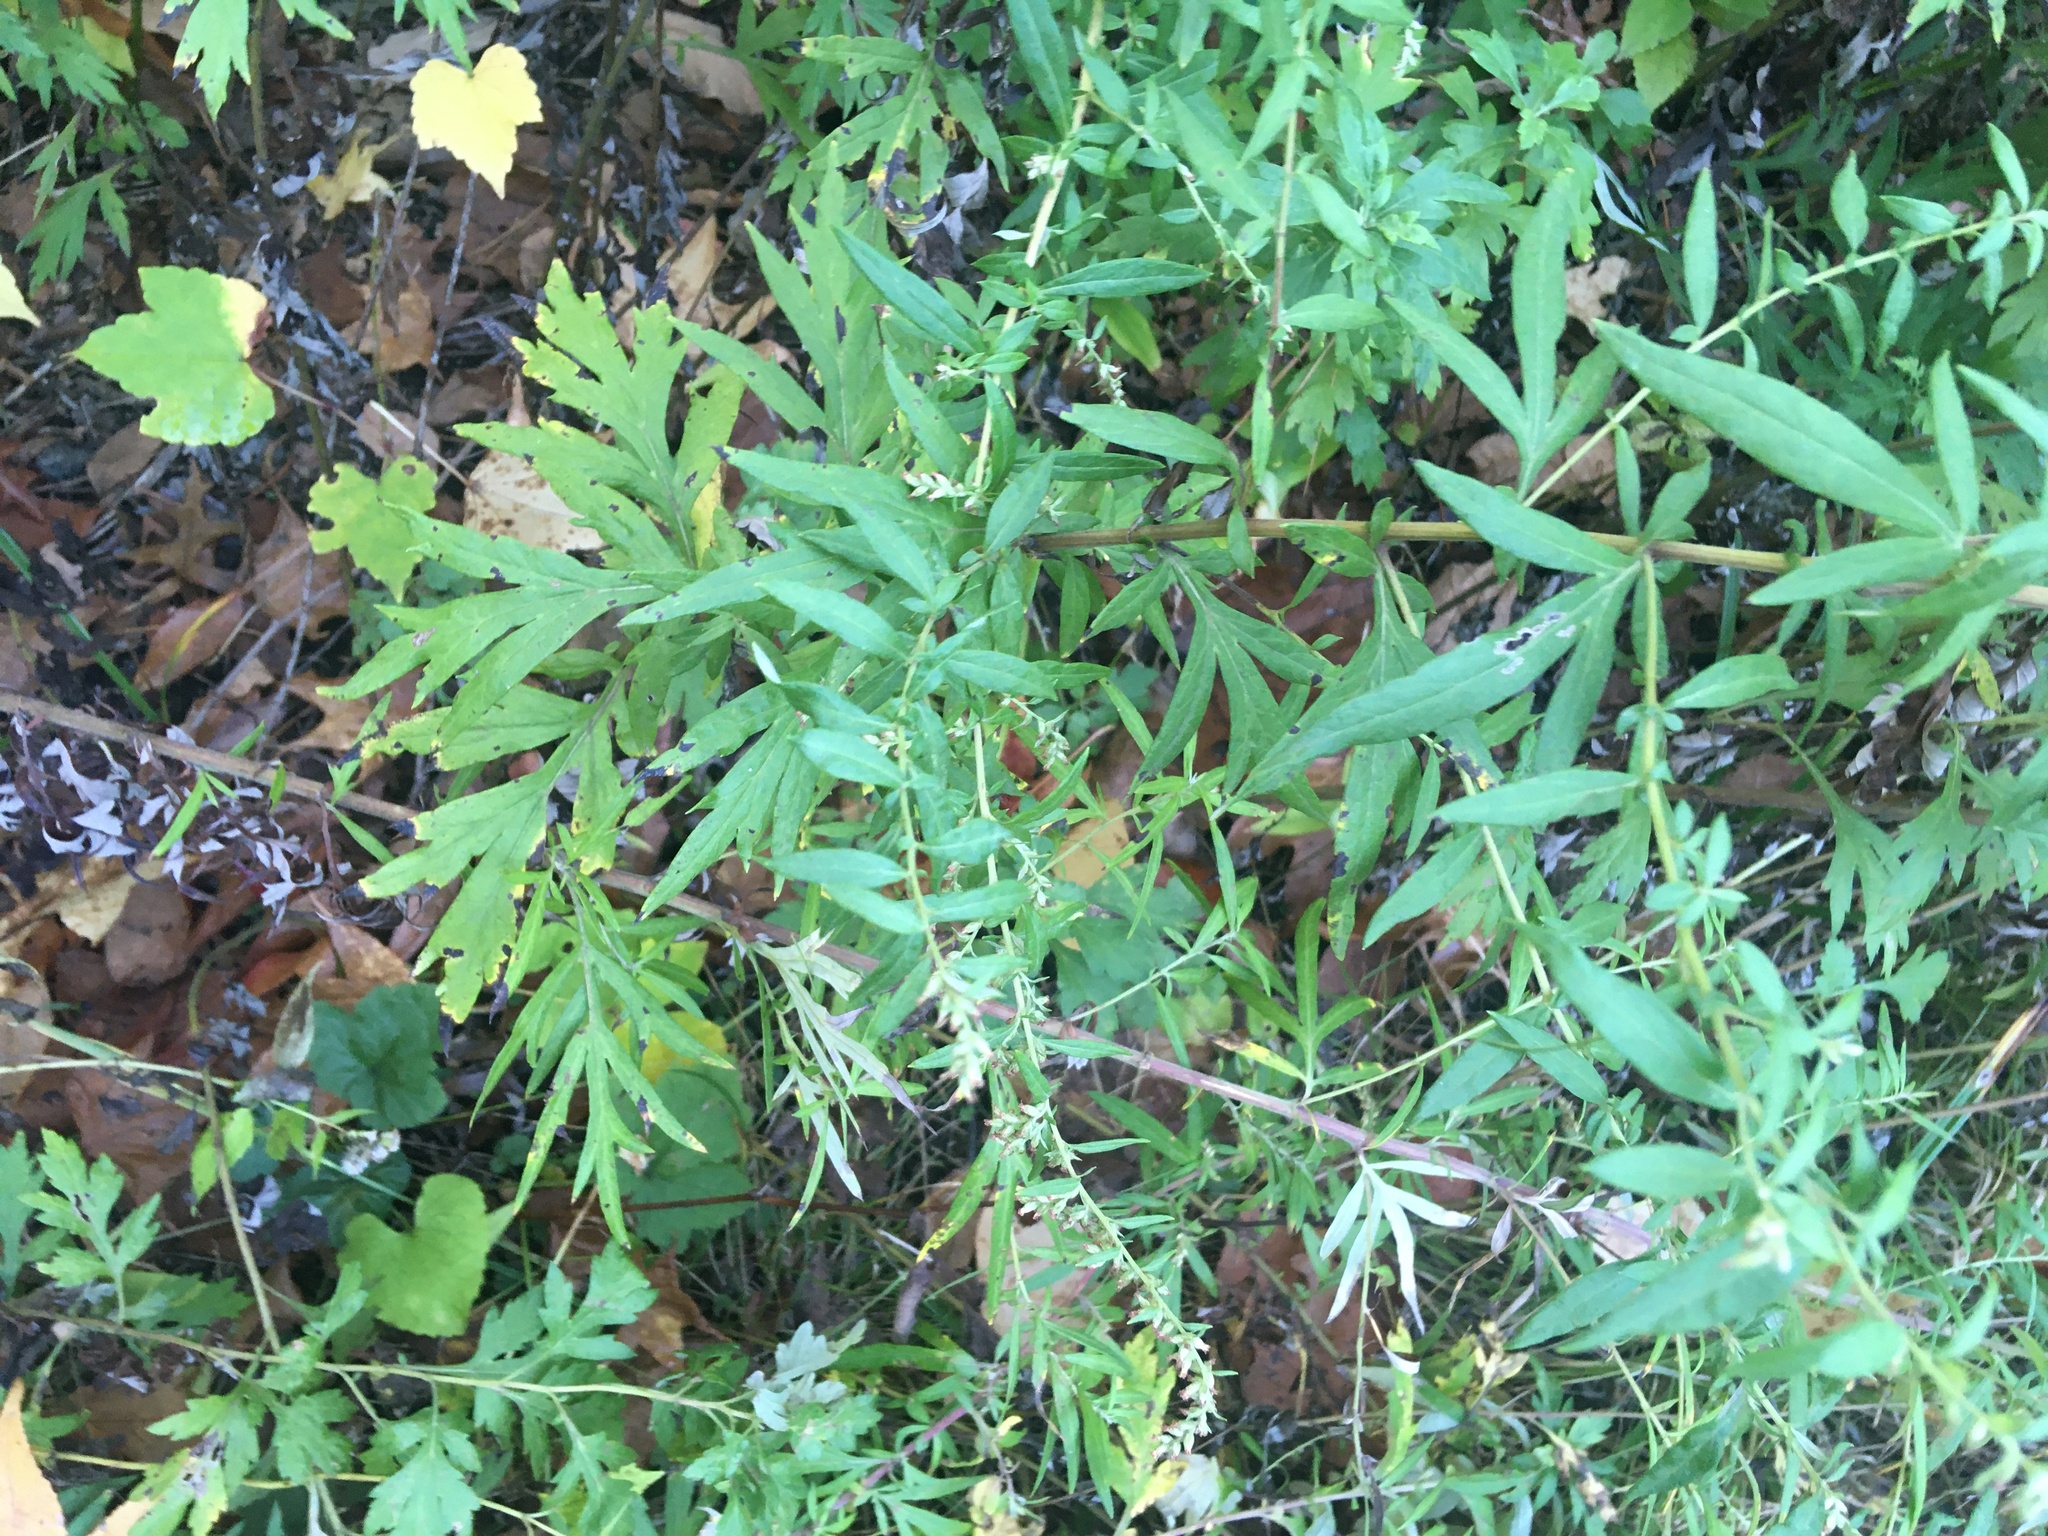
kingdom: Plantae
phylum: Tracheophyta
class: Magnoliopsida
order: Asterales
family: Asteraceae
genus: Artemisia
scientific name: Artemisia vulgaris
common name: Mugwort
